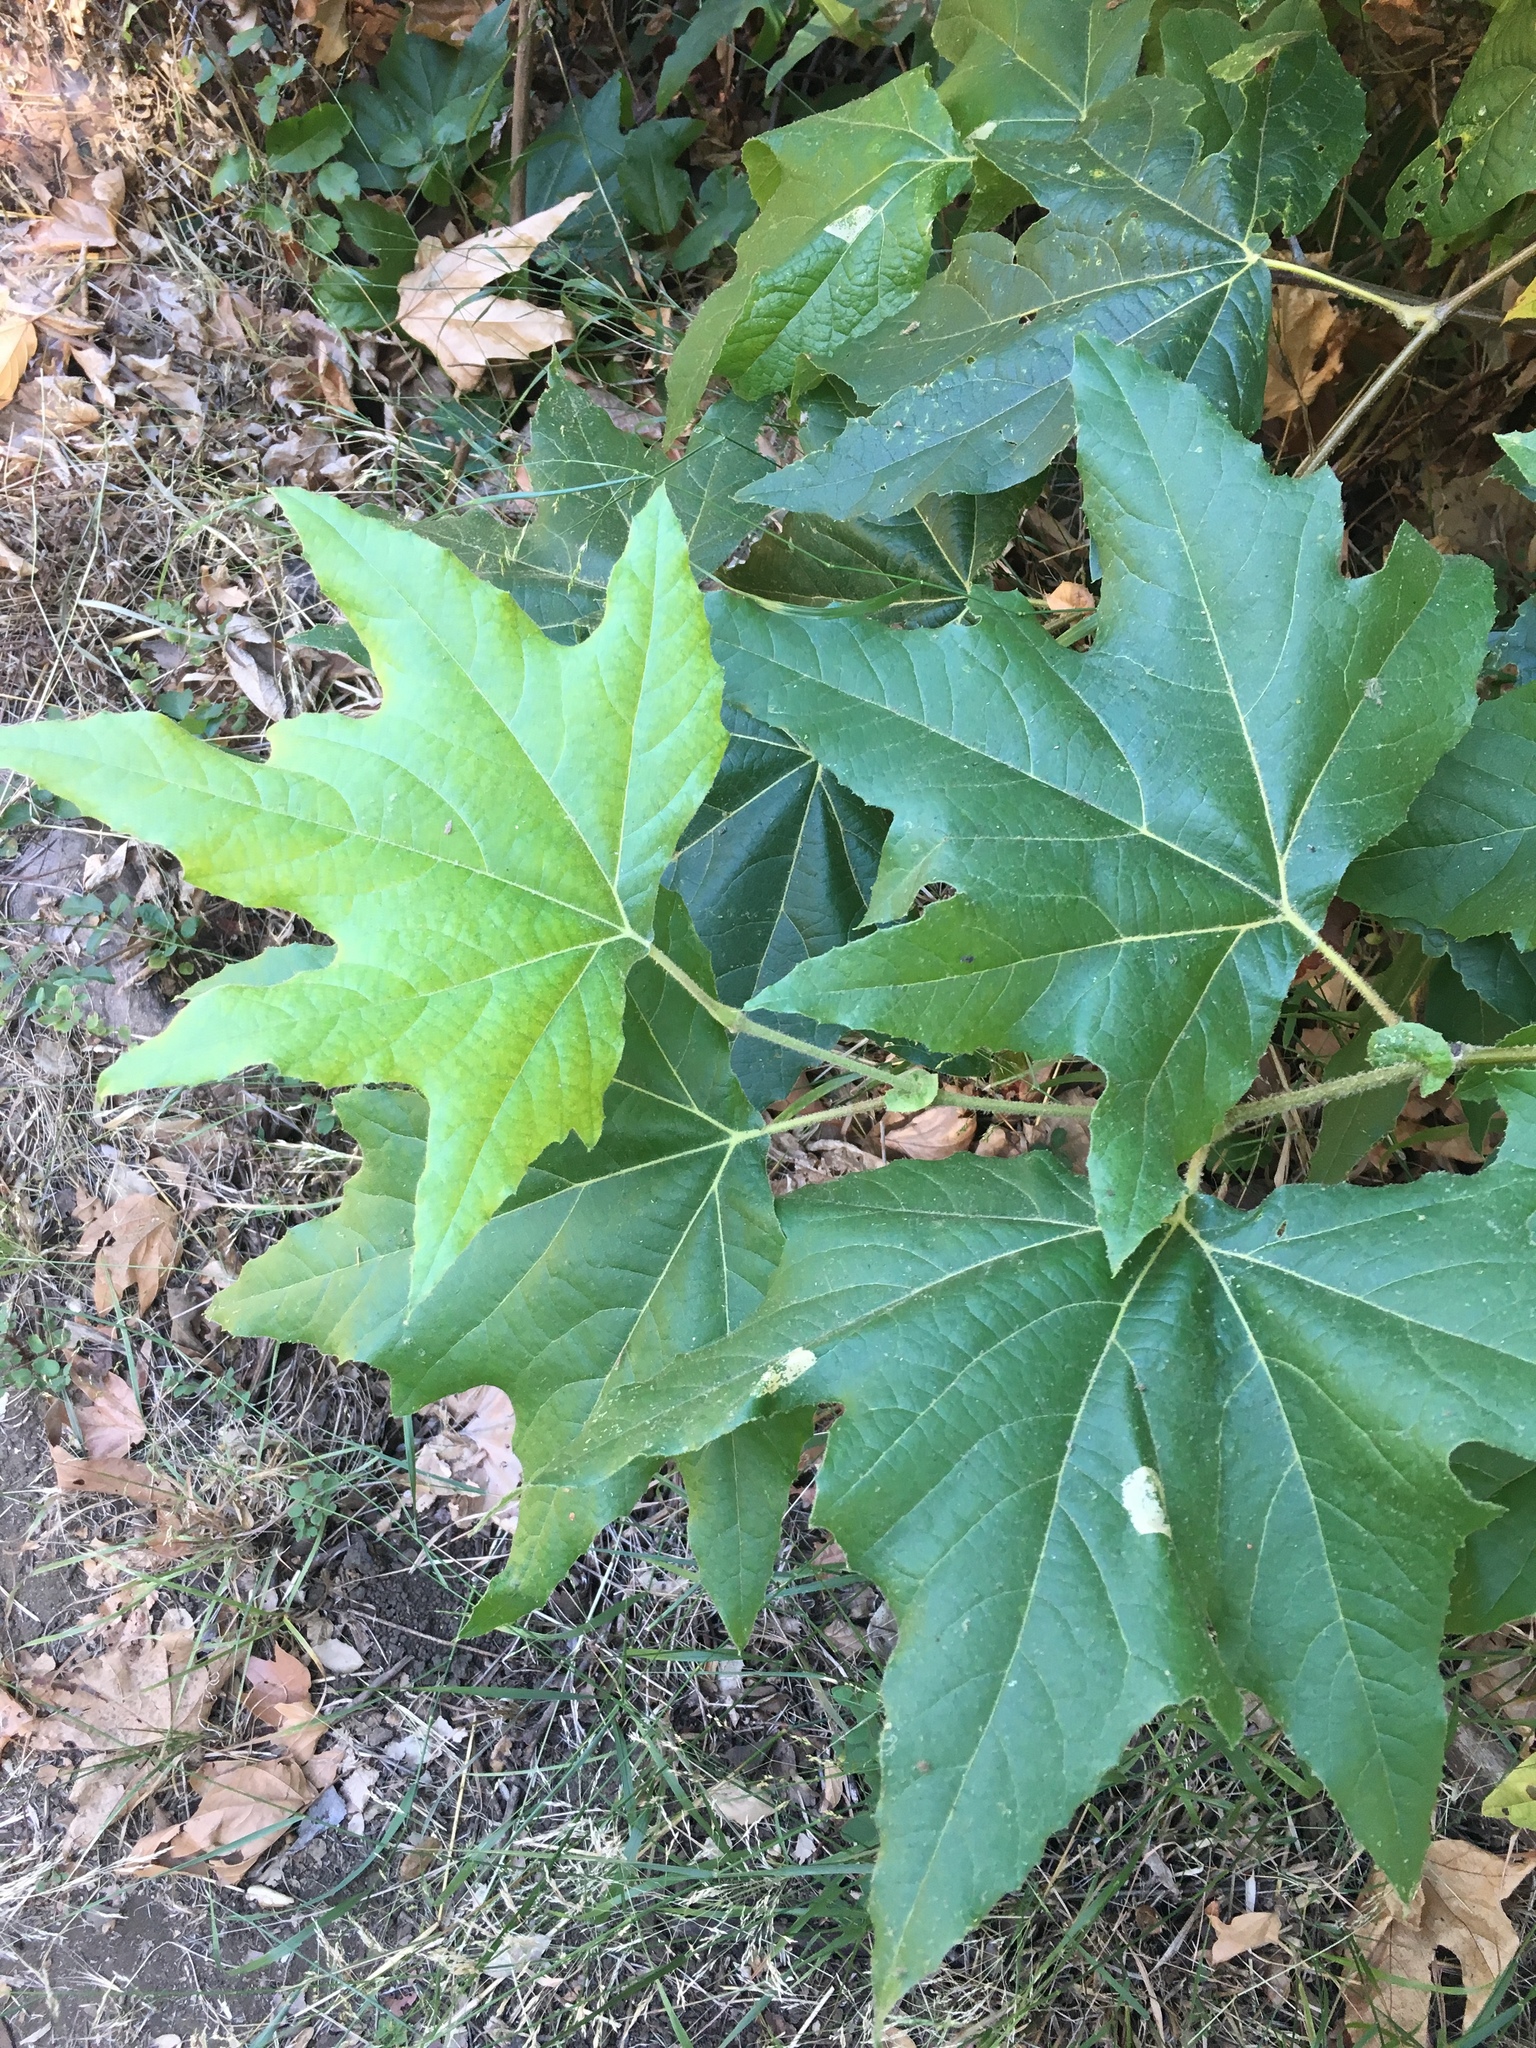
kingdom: Plantae
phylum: Tracheophyta
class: Magnoliopsida
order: Proteales
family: Platanaceae
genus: Platanus
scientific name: Platanus racemosa
